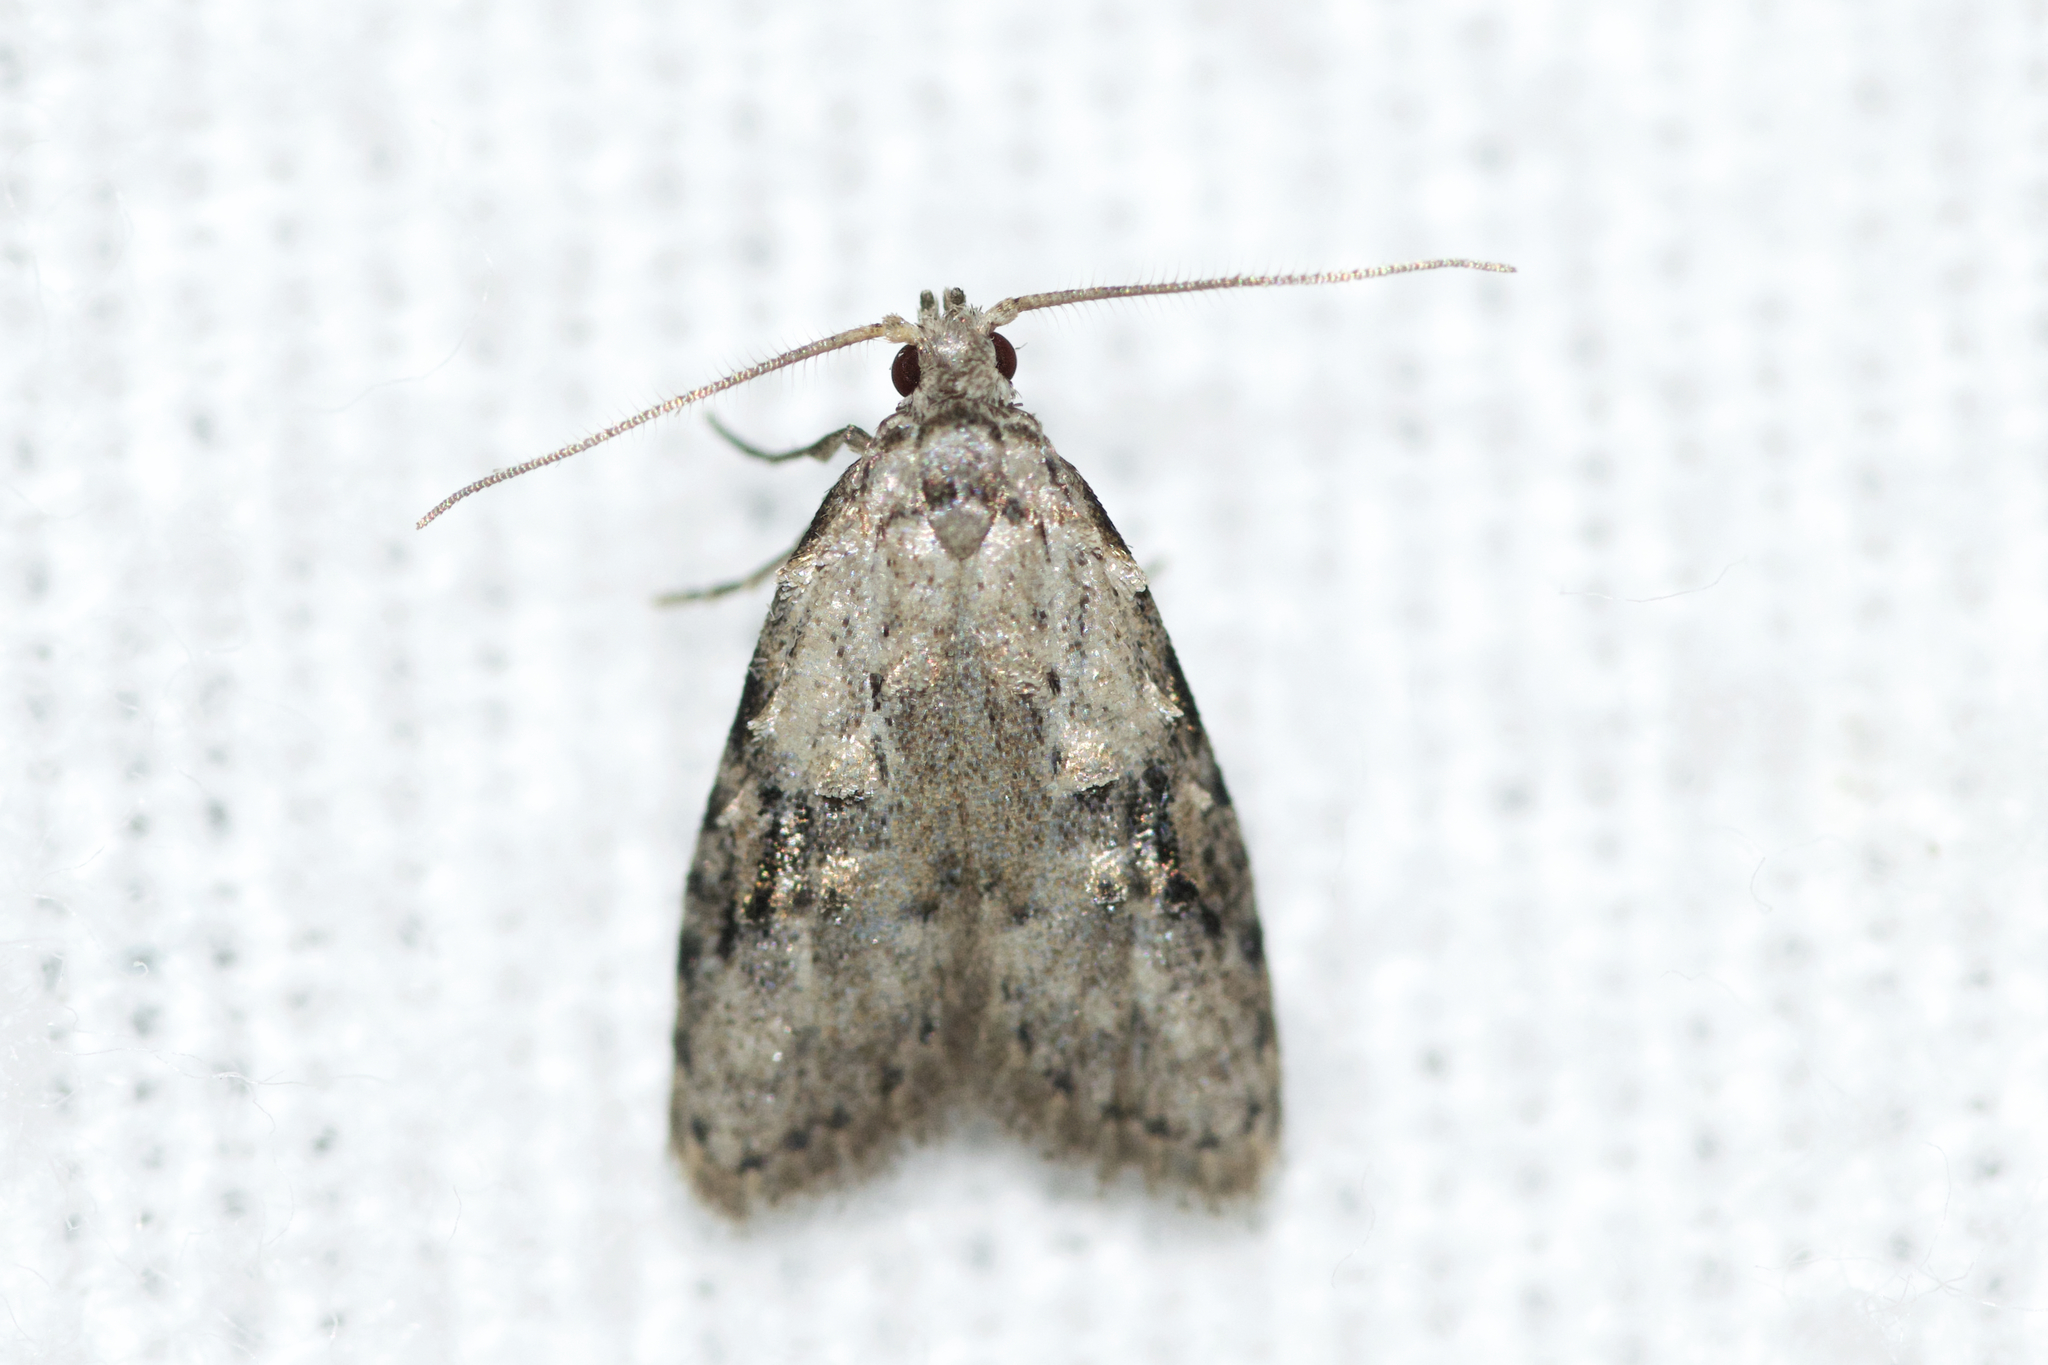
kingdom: Animalia
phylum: Arthropoda
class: Insecta
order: Lepidoptera
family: Carposinidae
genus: Carposina
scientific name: Carposina fernaldana
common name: Currant fruitworm moth
